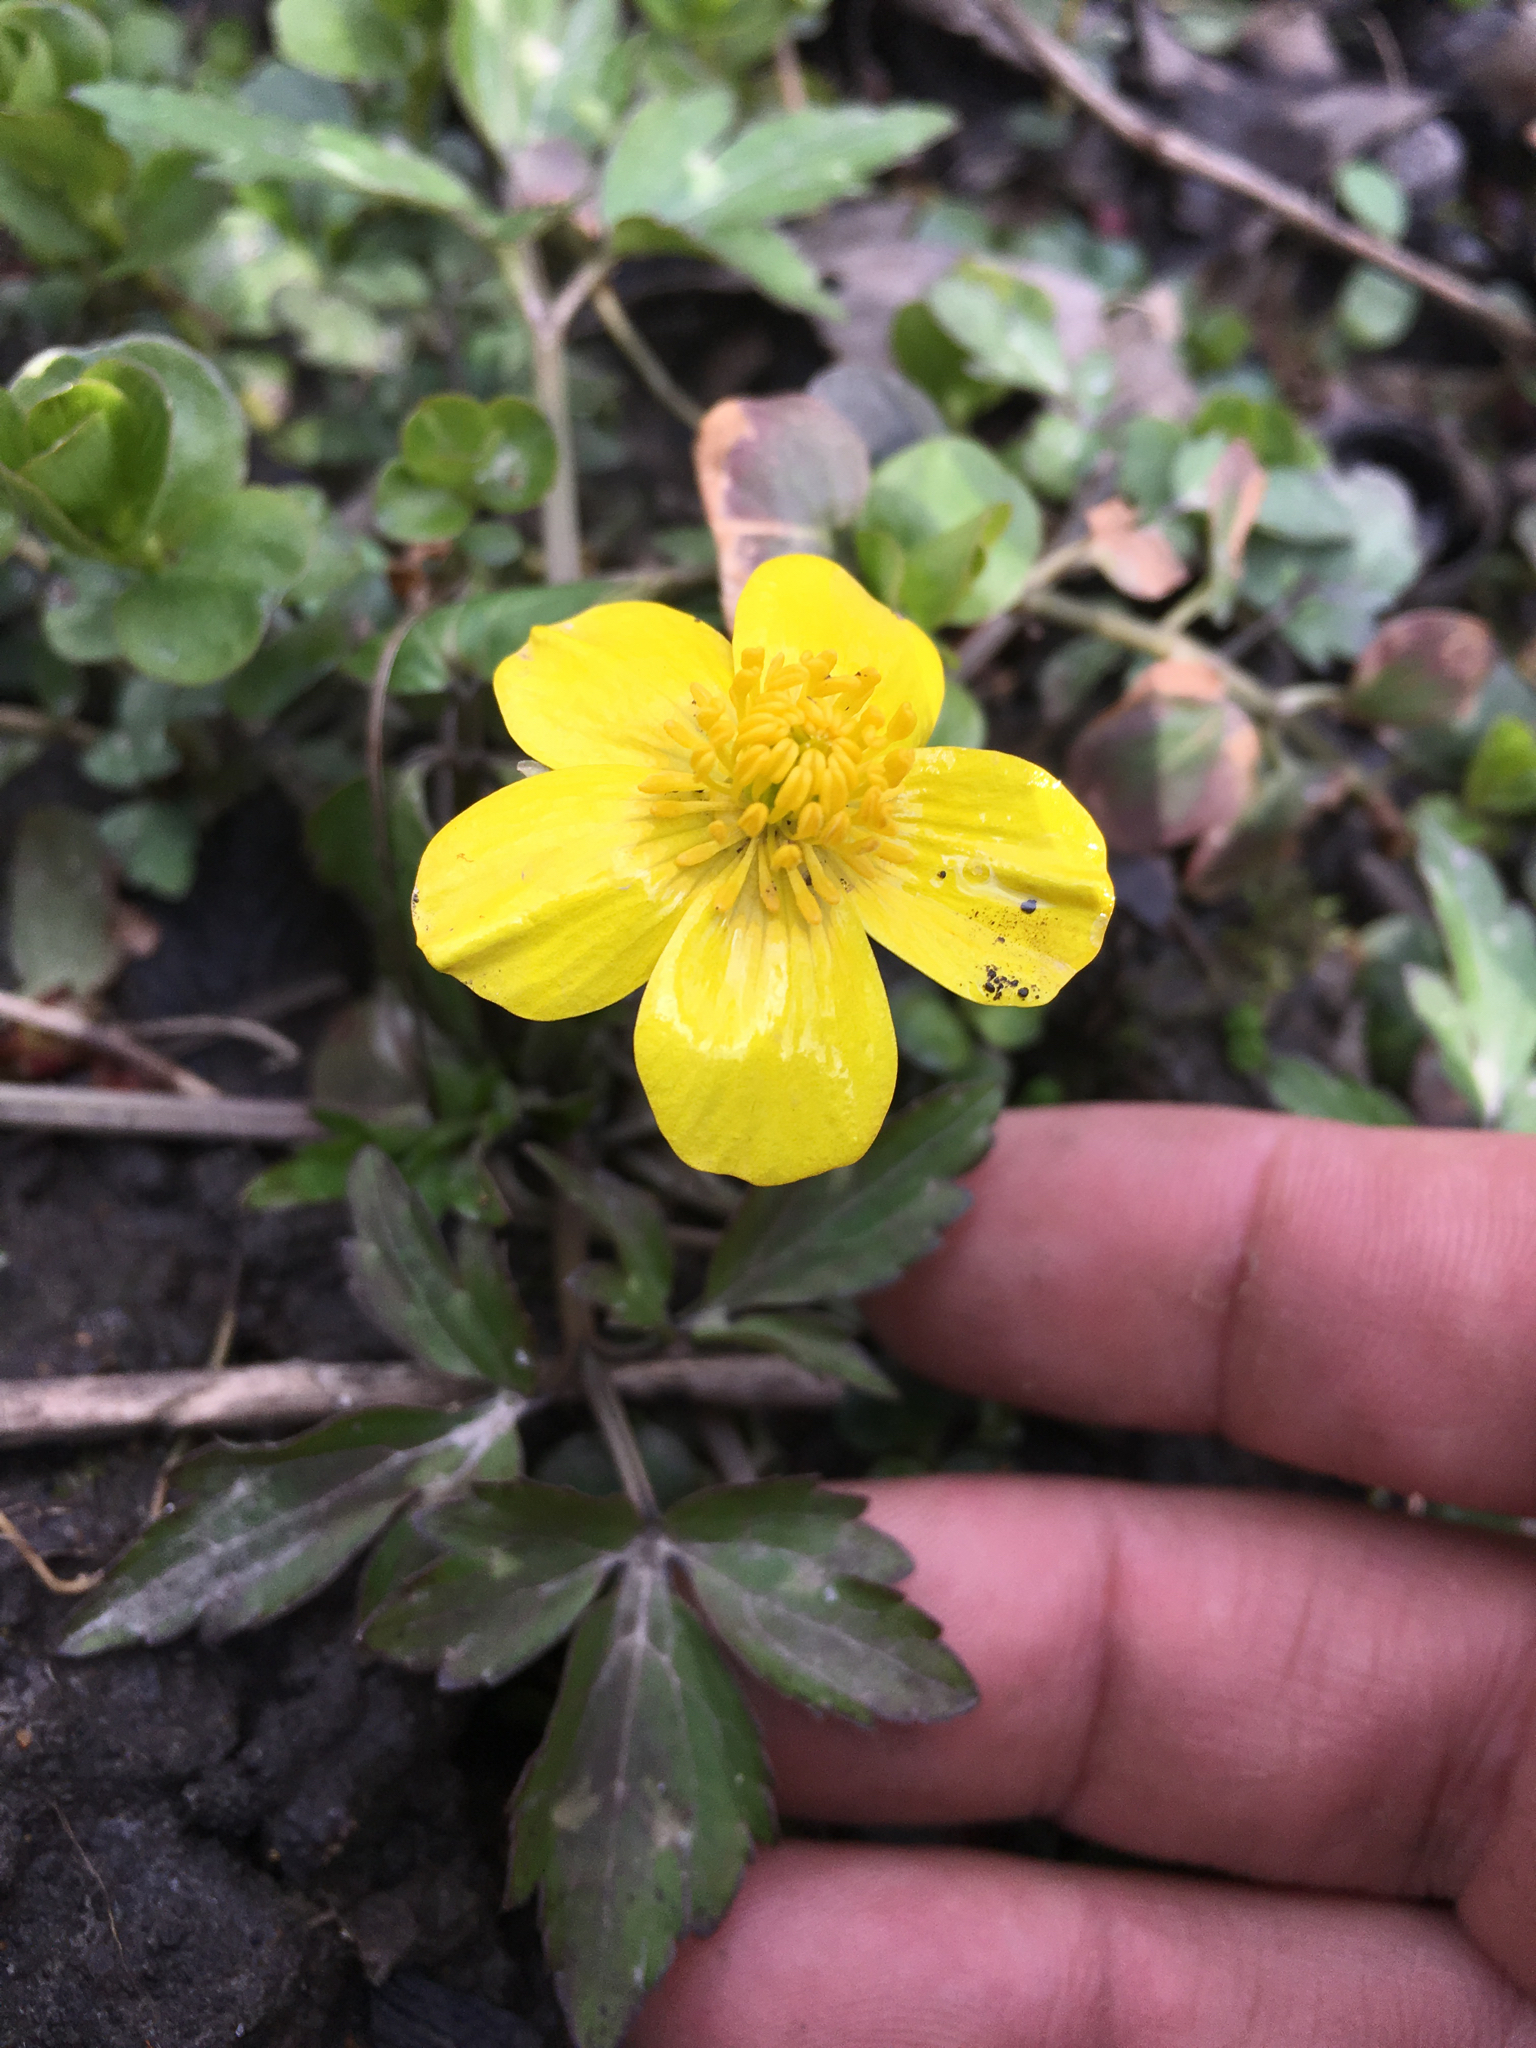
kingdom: Plantae
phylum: Tracheophyta
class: Magnoliopsida
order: Ranunculales
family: Ranunculaceae
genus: Ranunculus
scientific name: Ranunculus hispidus
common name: Bristly buttercup
